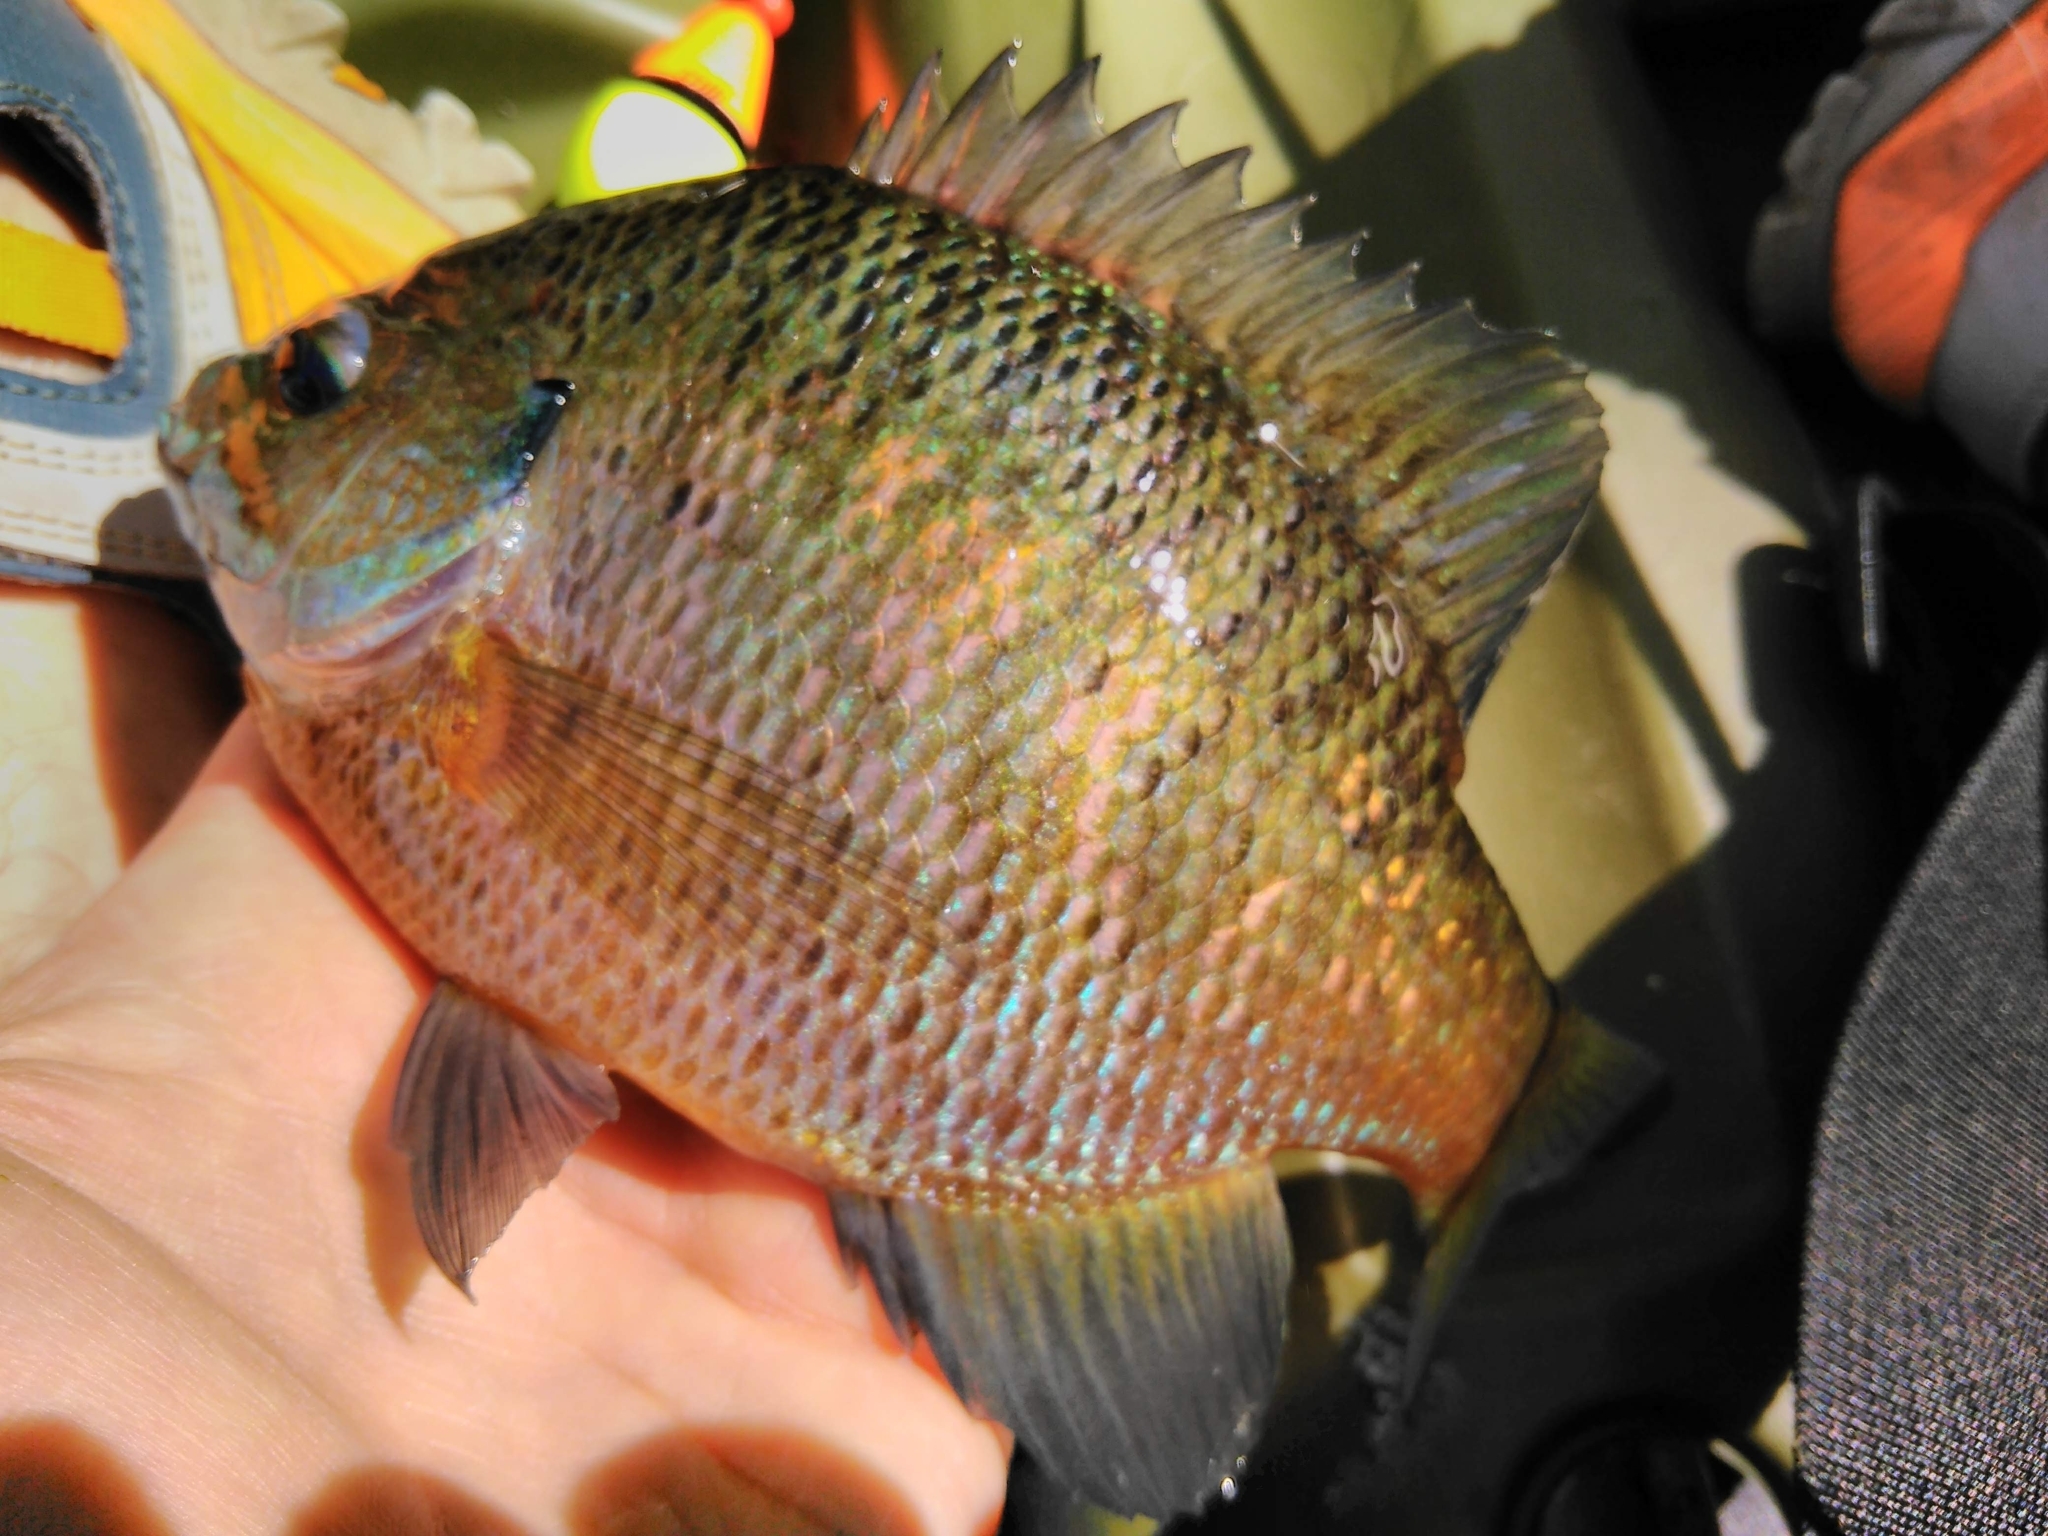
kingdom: Animalia
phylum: Chordata
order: Perciformes
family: Centrarchidae
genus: Lepomis
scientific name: Lepomis macrochirus
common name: Bluegill
